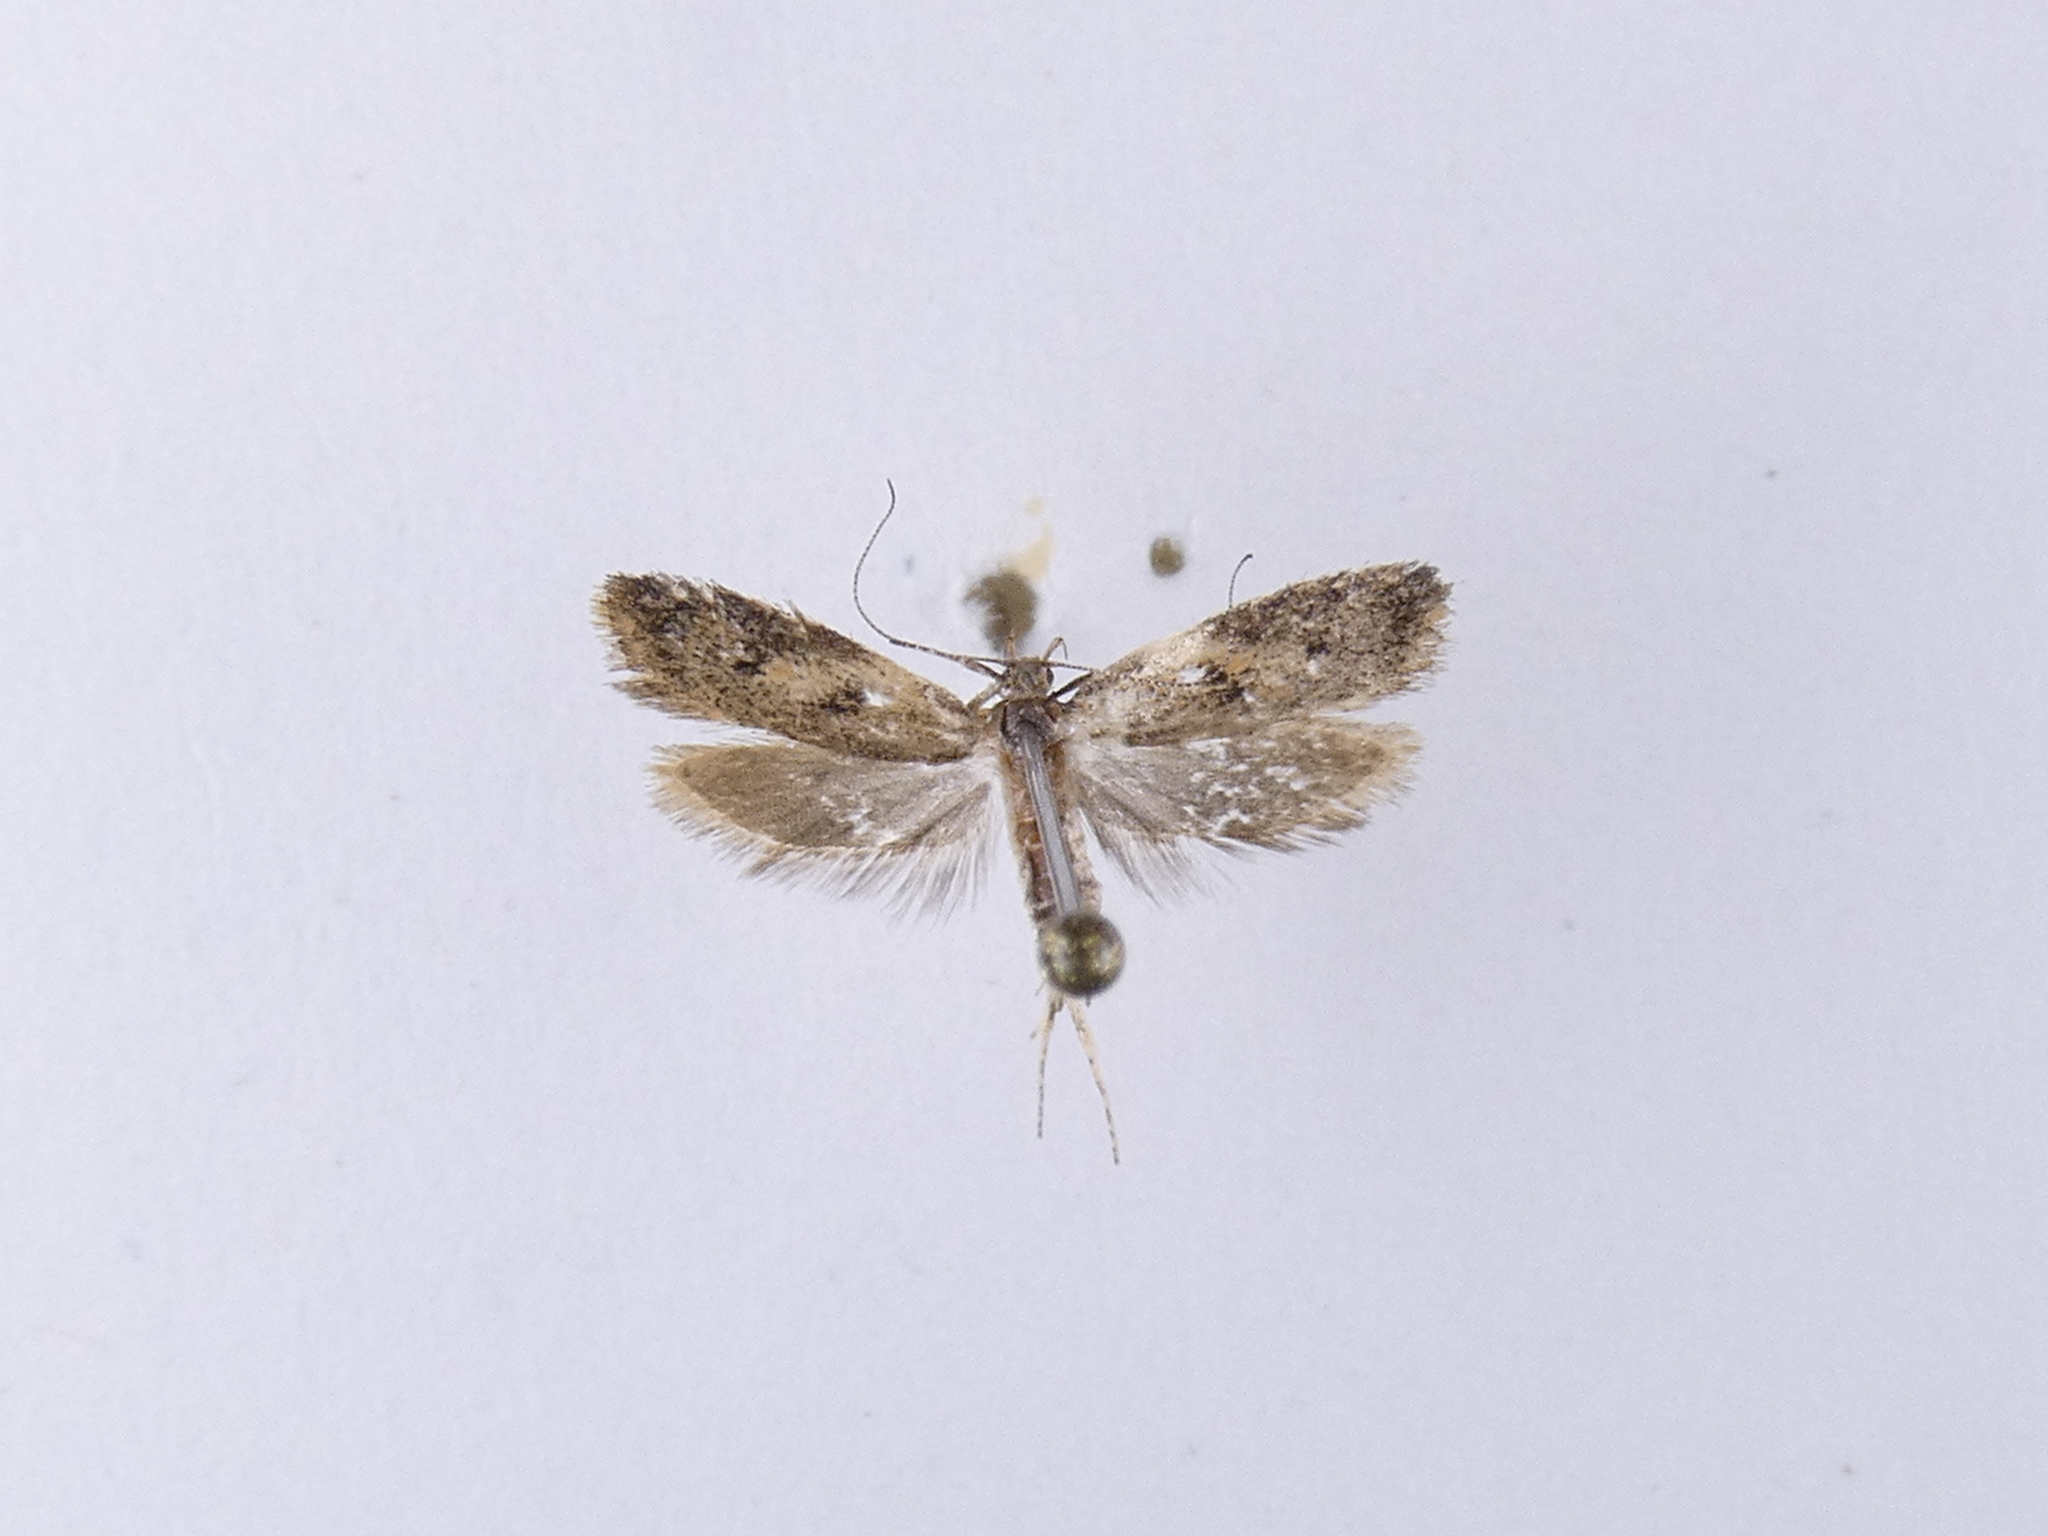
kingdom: Animalia
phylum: Arthropoda
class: Insecta
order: Lepidoptera
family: Oecophoridae
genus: Gymnobathra
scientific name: Gymnobathra tholodella
